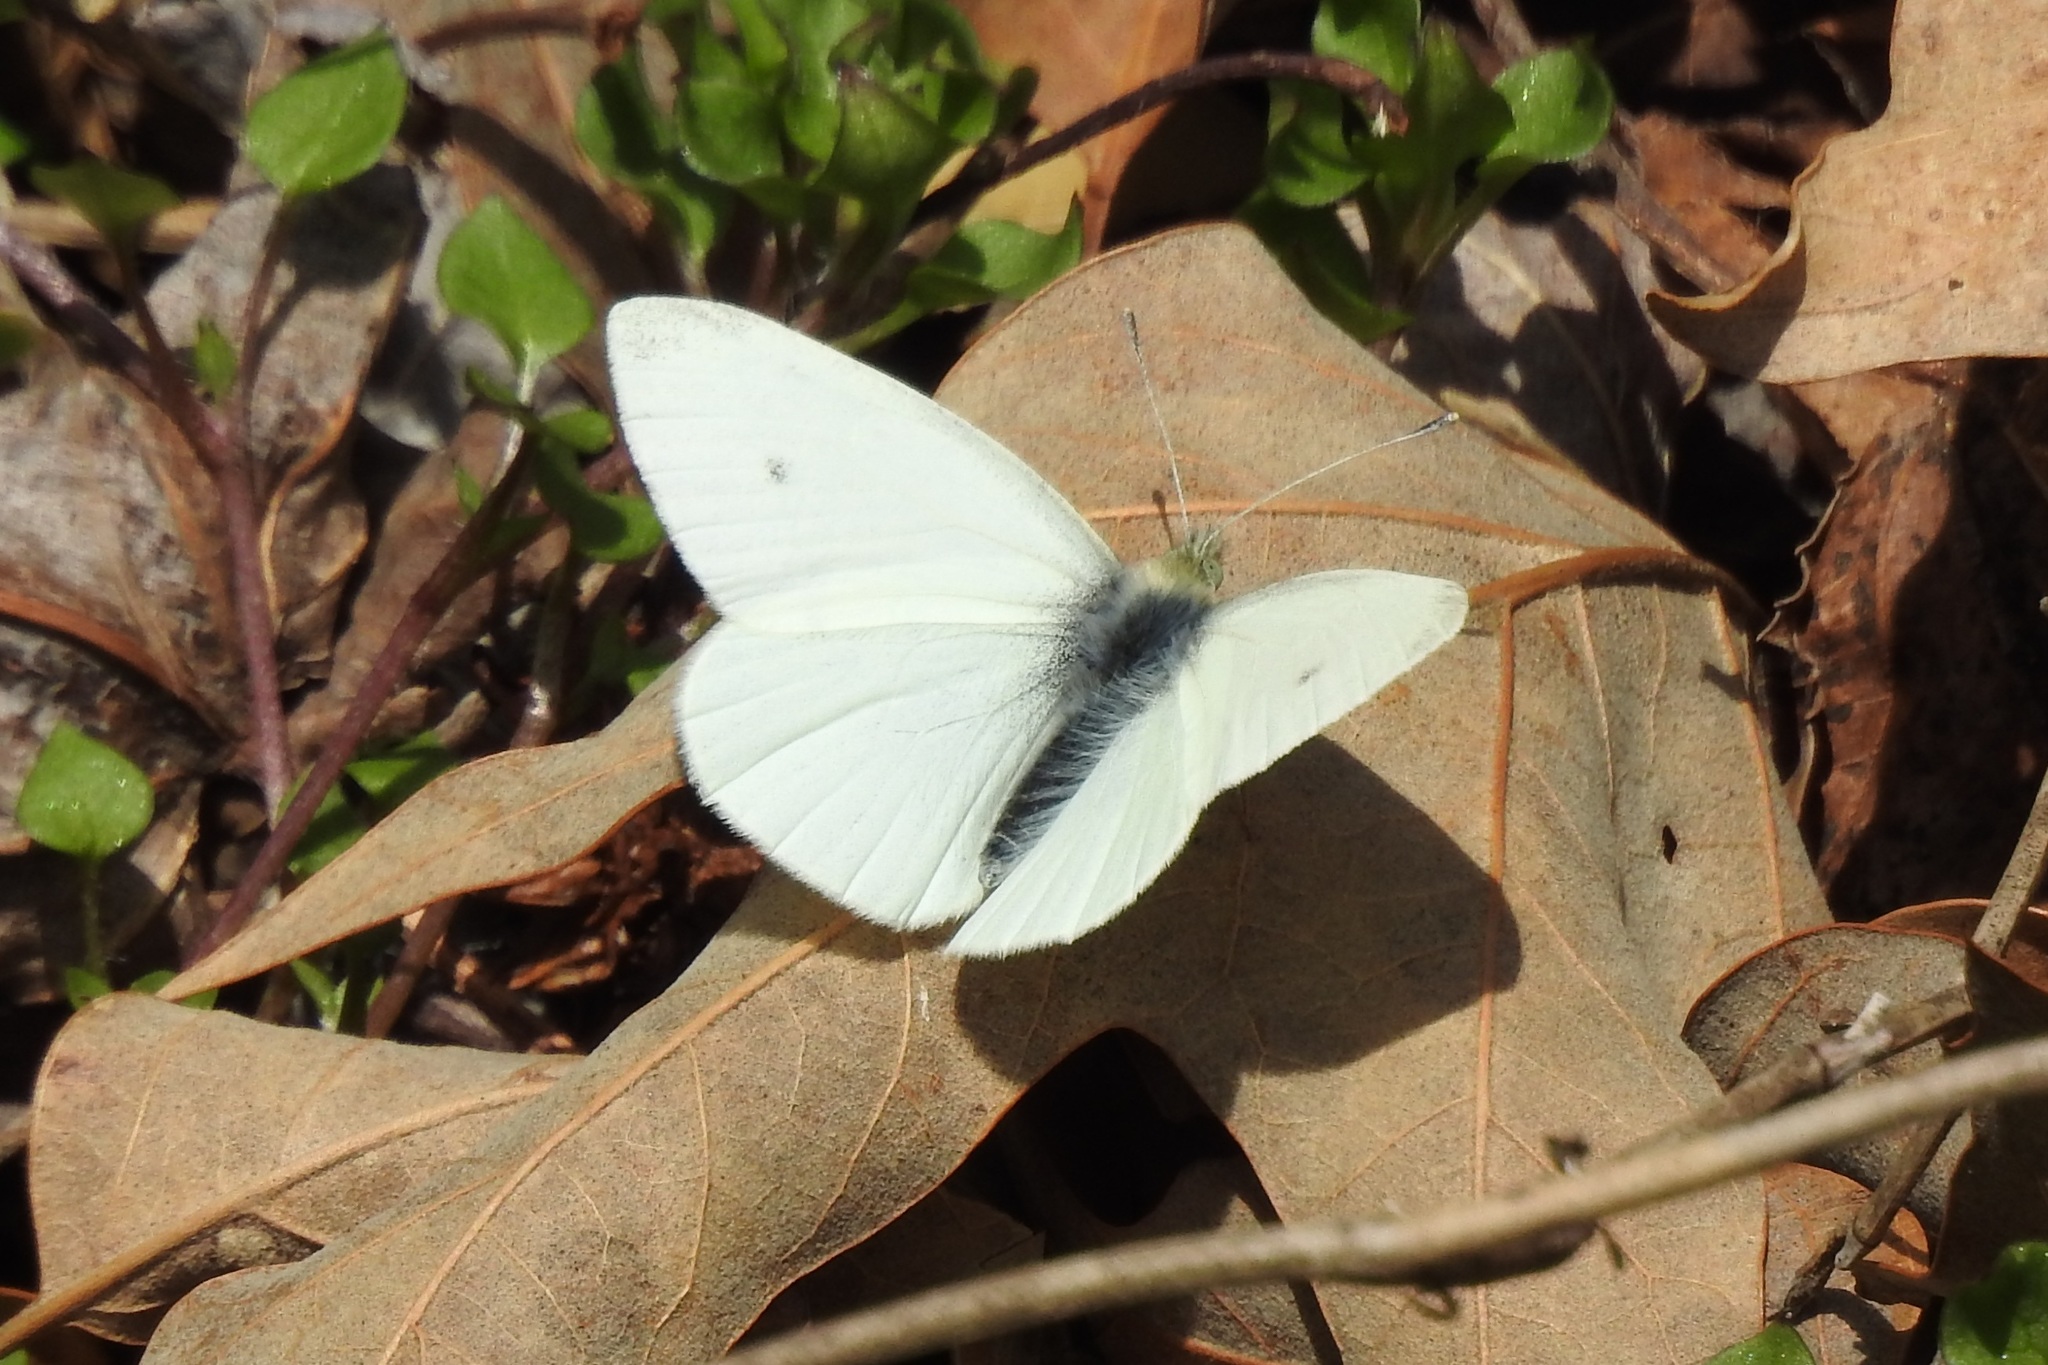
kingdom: Animalia
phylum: Arthropoda
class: Insecta
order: Lepidoptera
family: Pieridae
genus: Pieris
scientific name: Pieris rapae
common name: Small white
